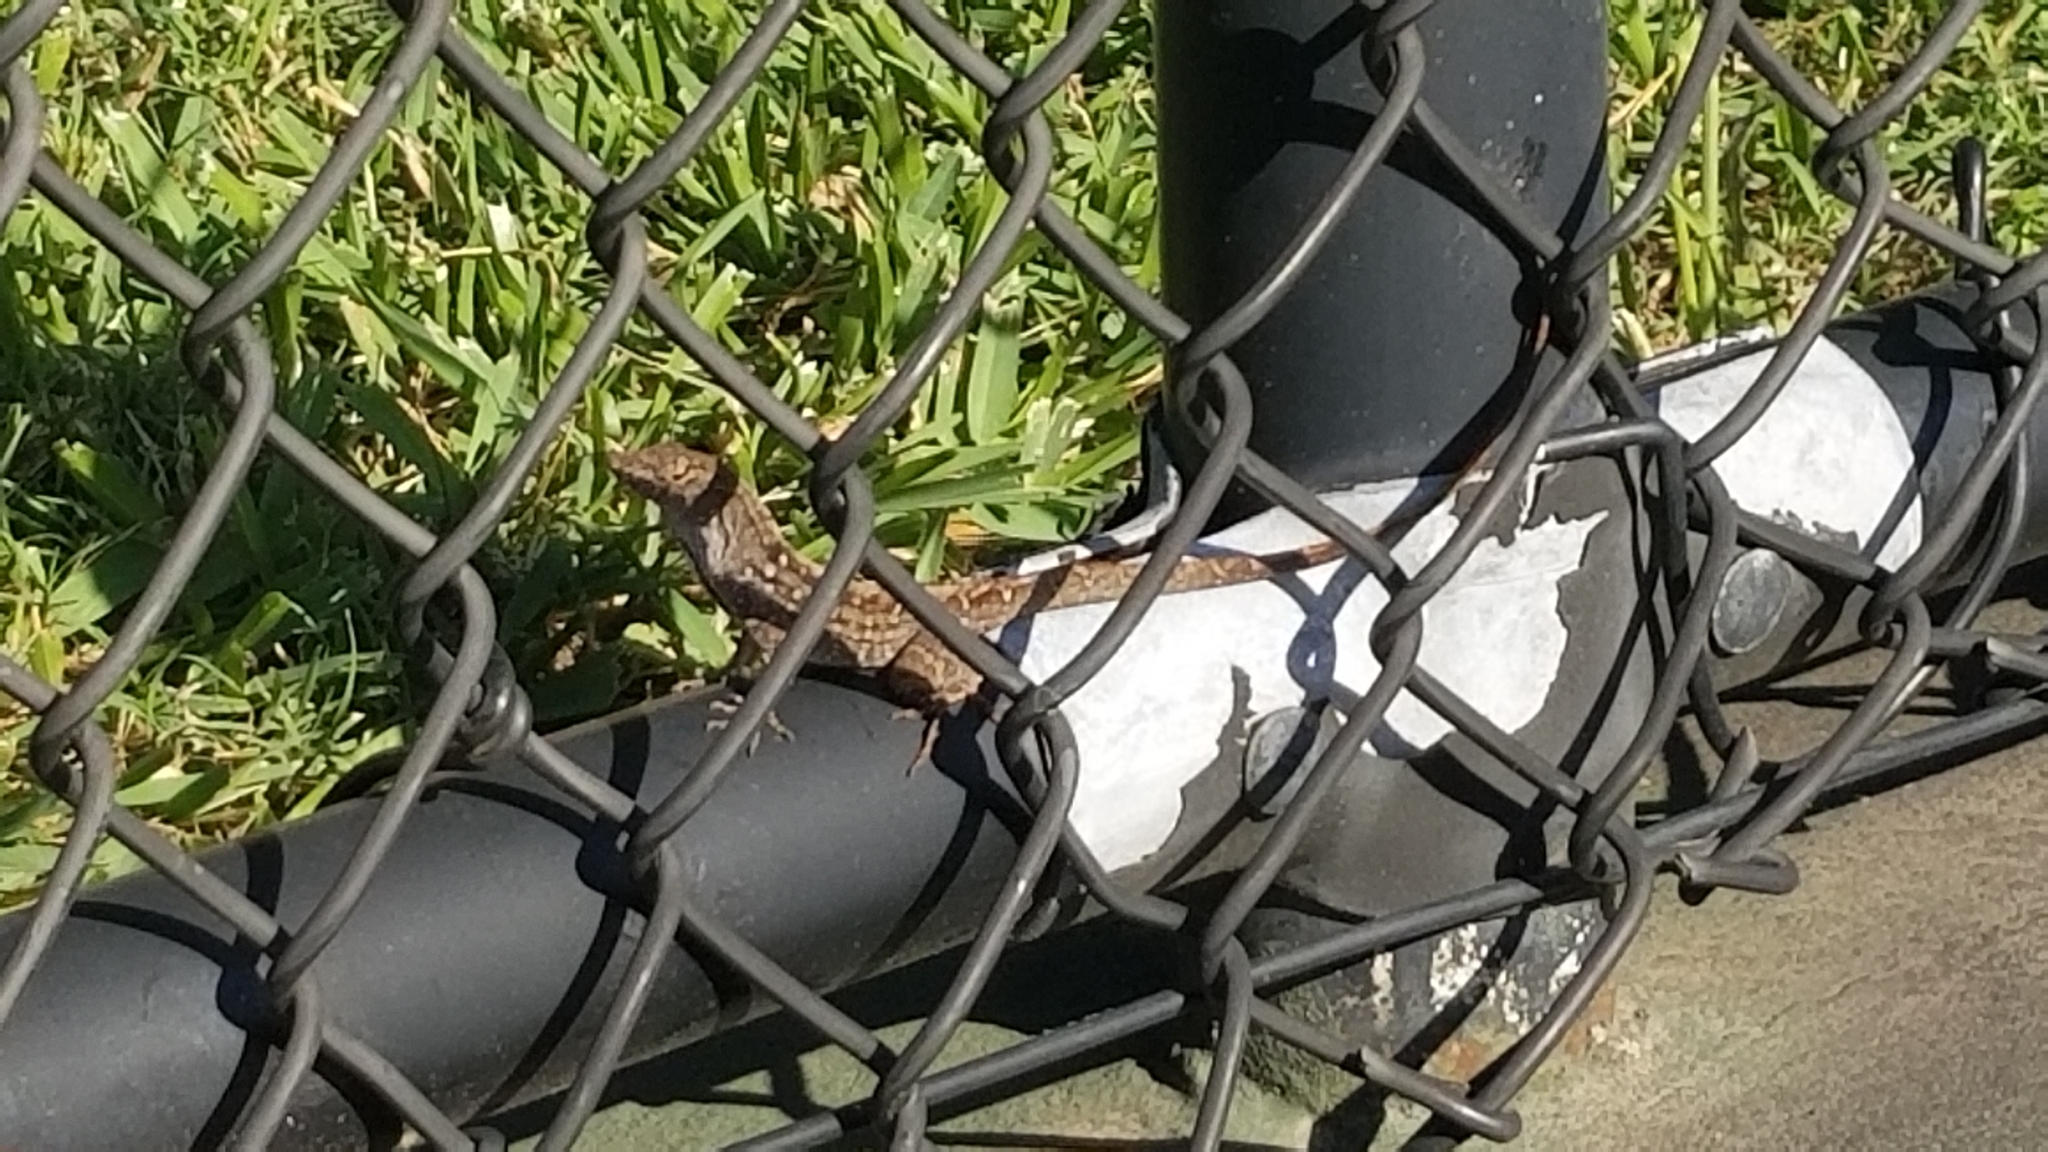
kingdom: Animalia
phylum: Chordata
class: Squamata
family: Dactyloidae
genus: Anolis
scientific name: Anolis sagrei
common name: Brown anole
